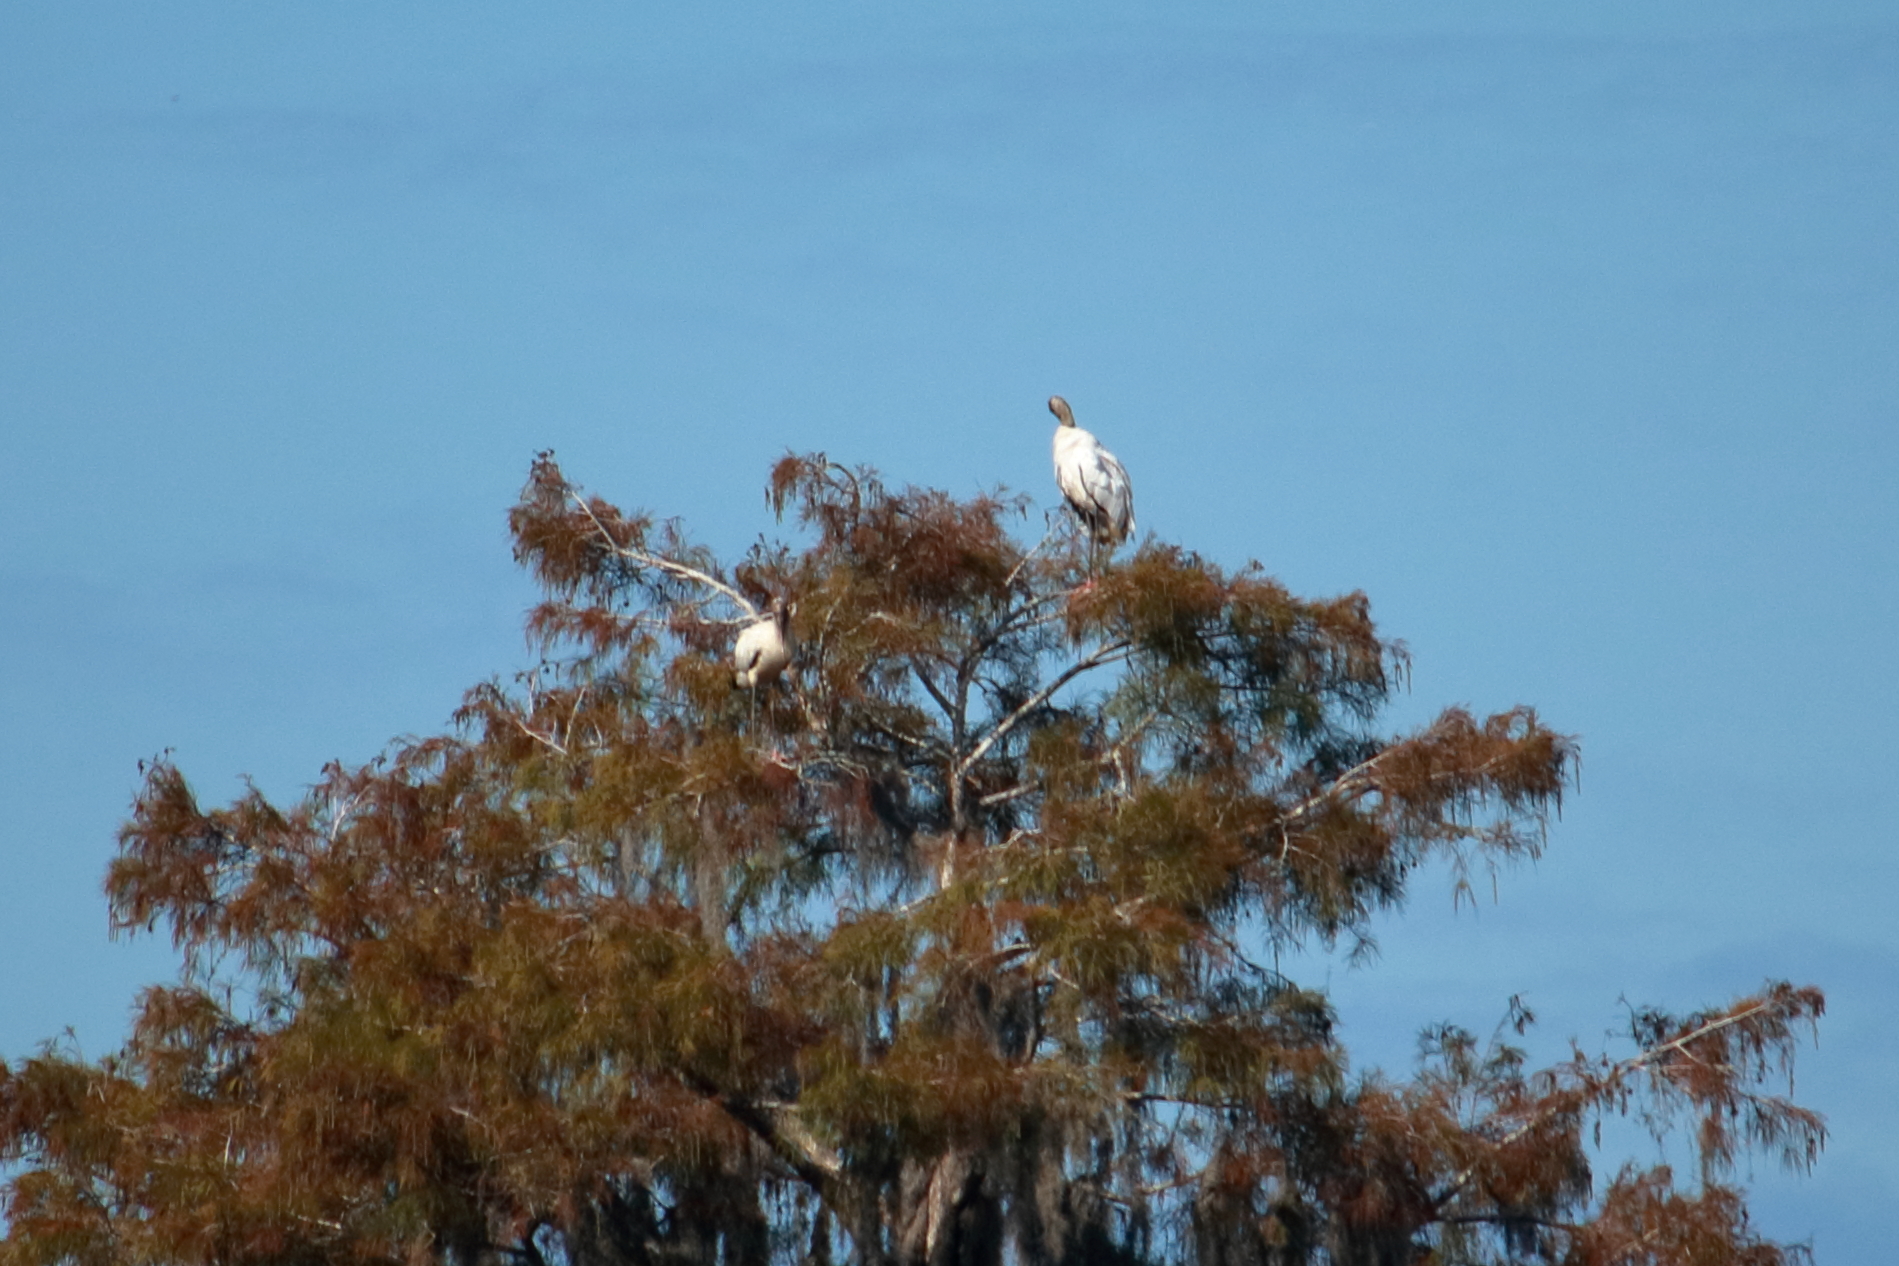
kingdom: Animalia
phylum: Chordata
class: Aves
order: Ciconiiformes
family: Ciconiidae
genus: Mycteria
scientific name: Mycteria americana
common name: Wood stork
